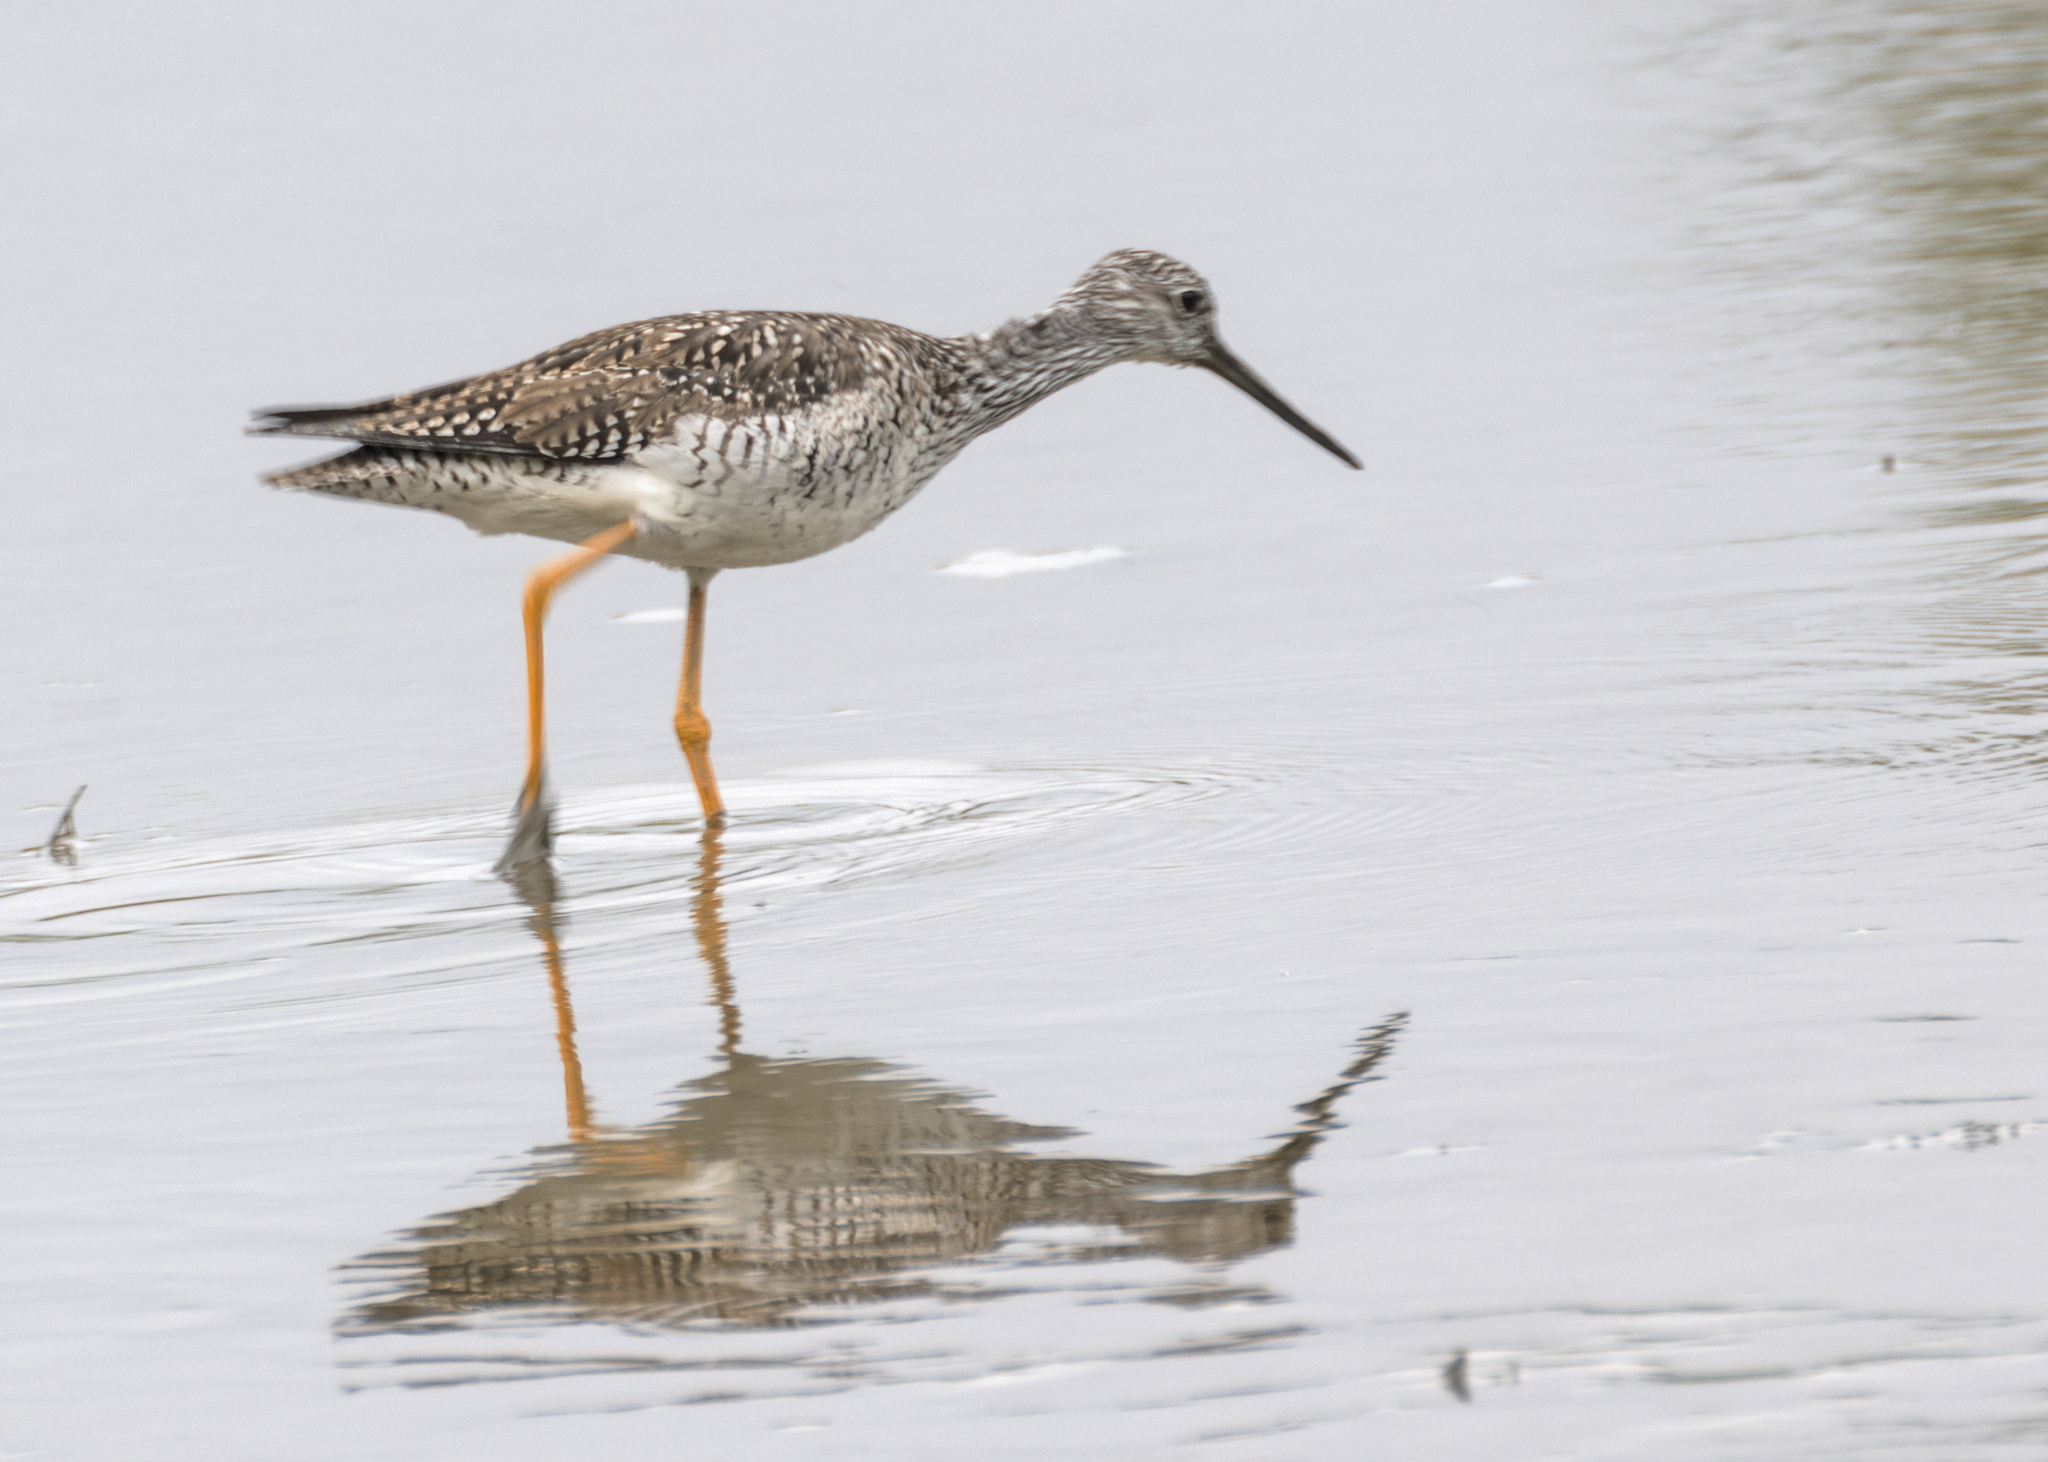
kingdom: Animalia
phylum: Chordata
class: Aves
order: Charadriiformes
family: Scolopacidae
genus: Tringa
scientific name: Tringa melanoleuca
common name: Greater yellowlegs
